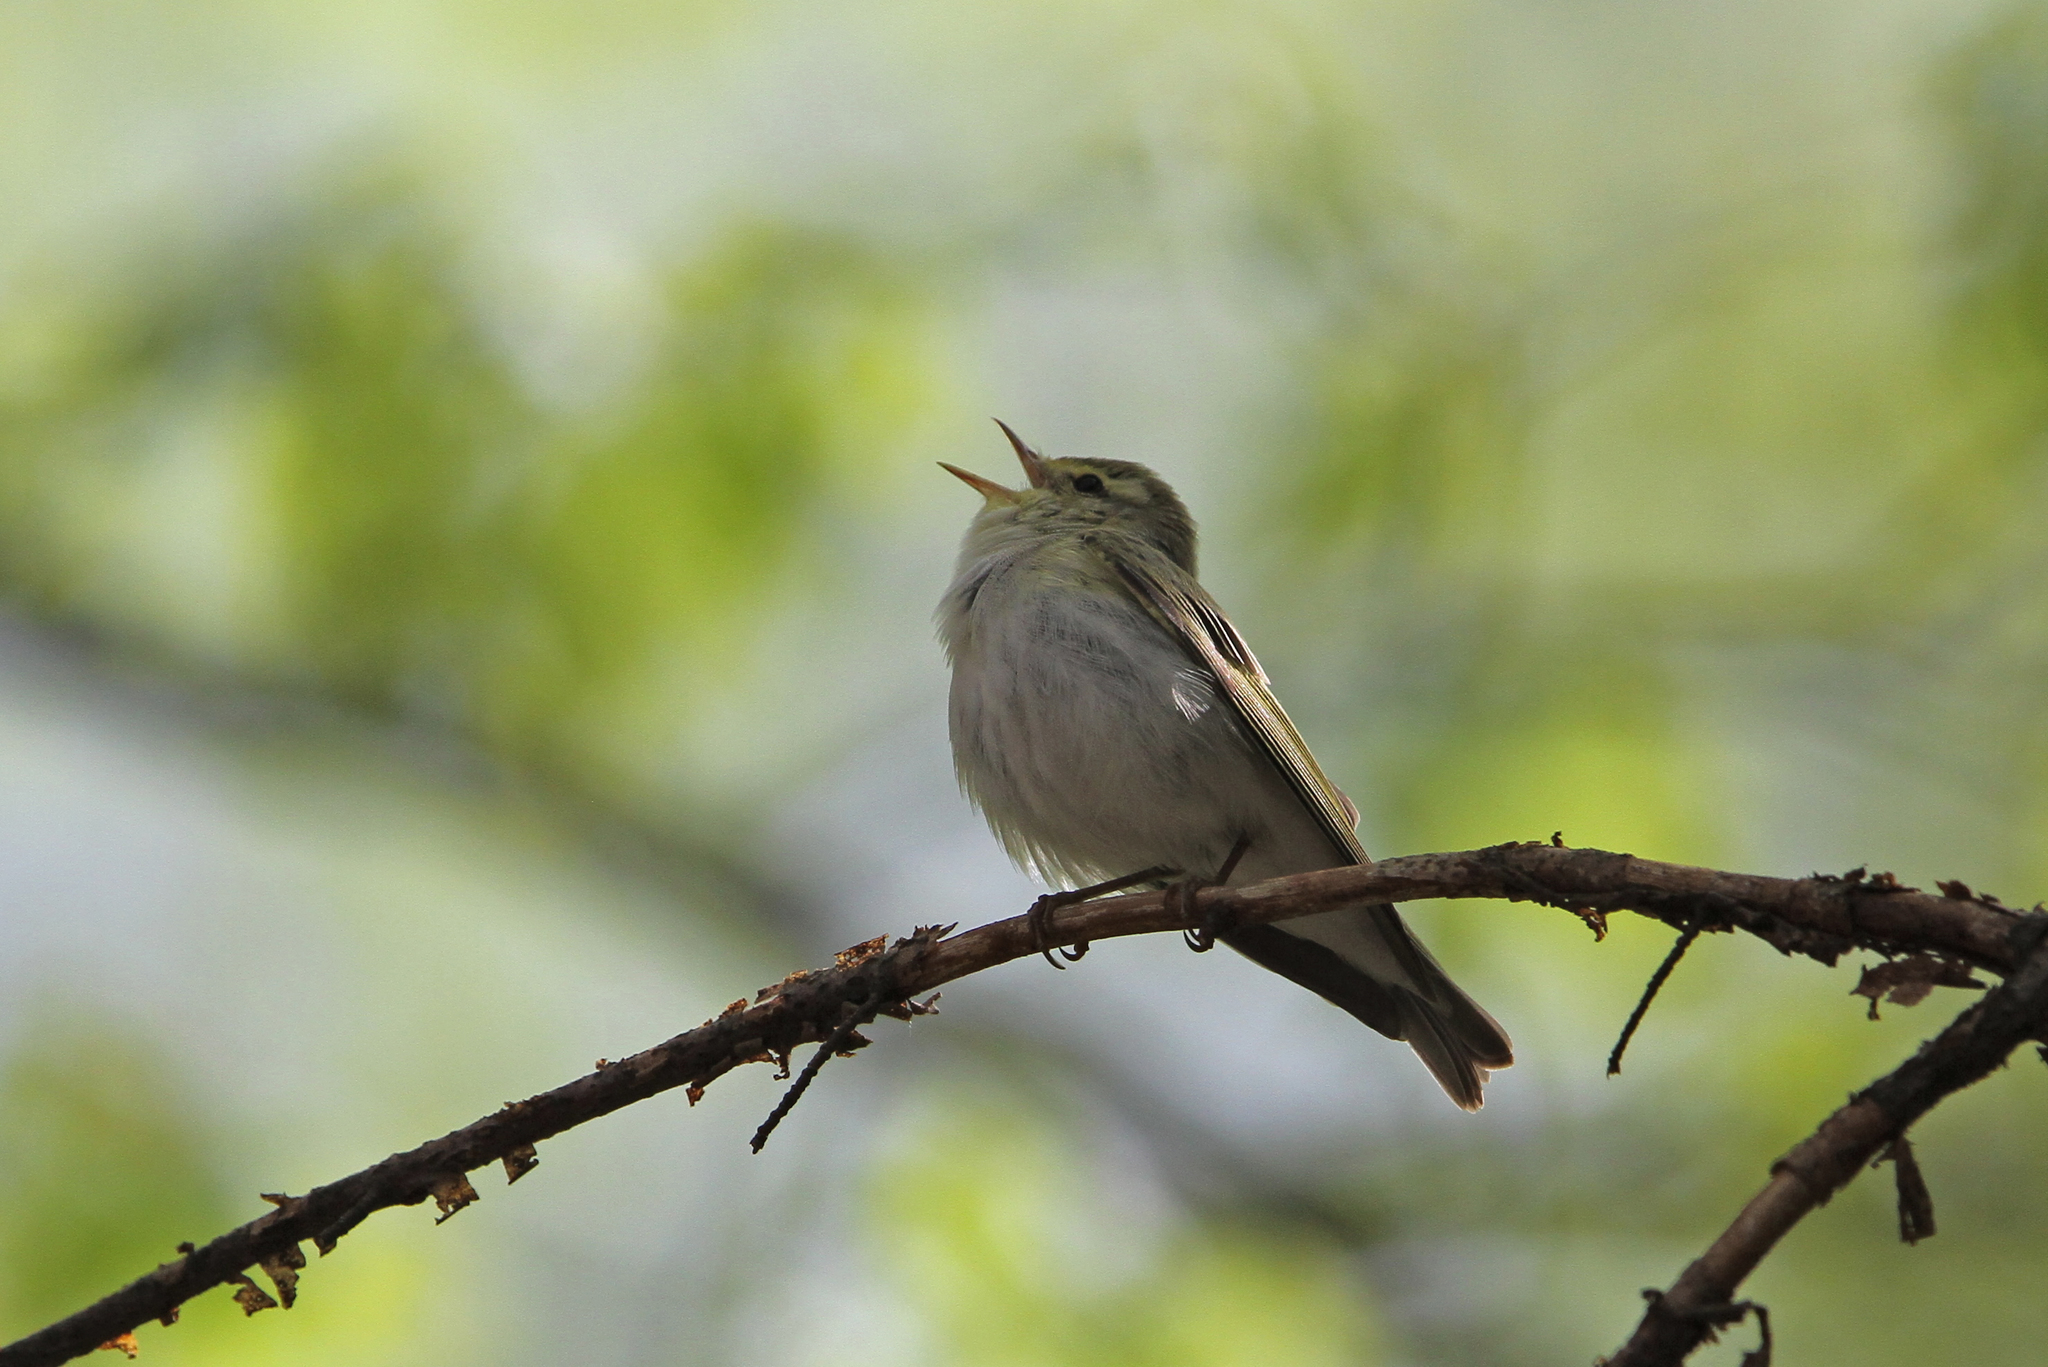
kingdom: Animalia
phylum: Chordata
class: Aves
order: Passeriformes
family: Phylloscopidae
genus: Phylloscopus
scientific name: Phylloscopus sibillatrix
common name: Wood warbler
